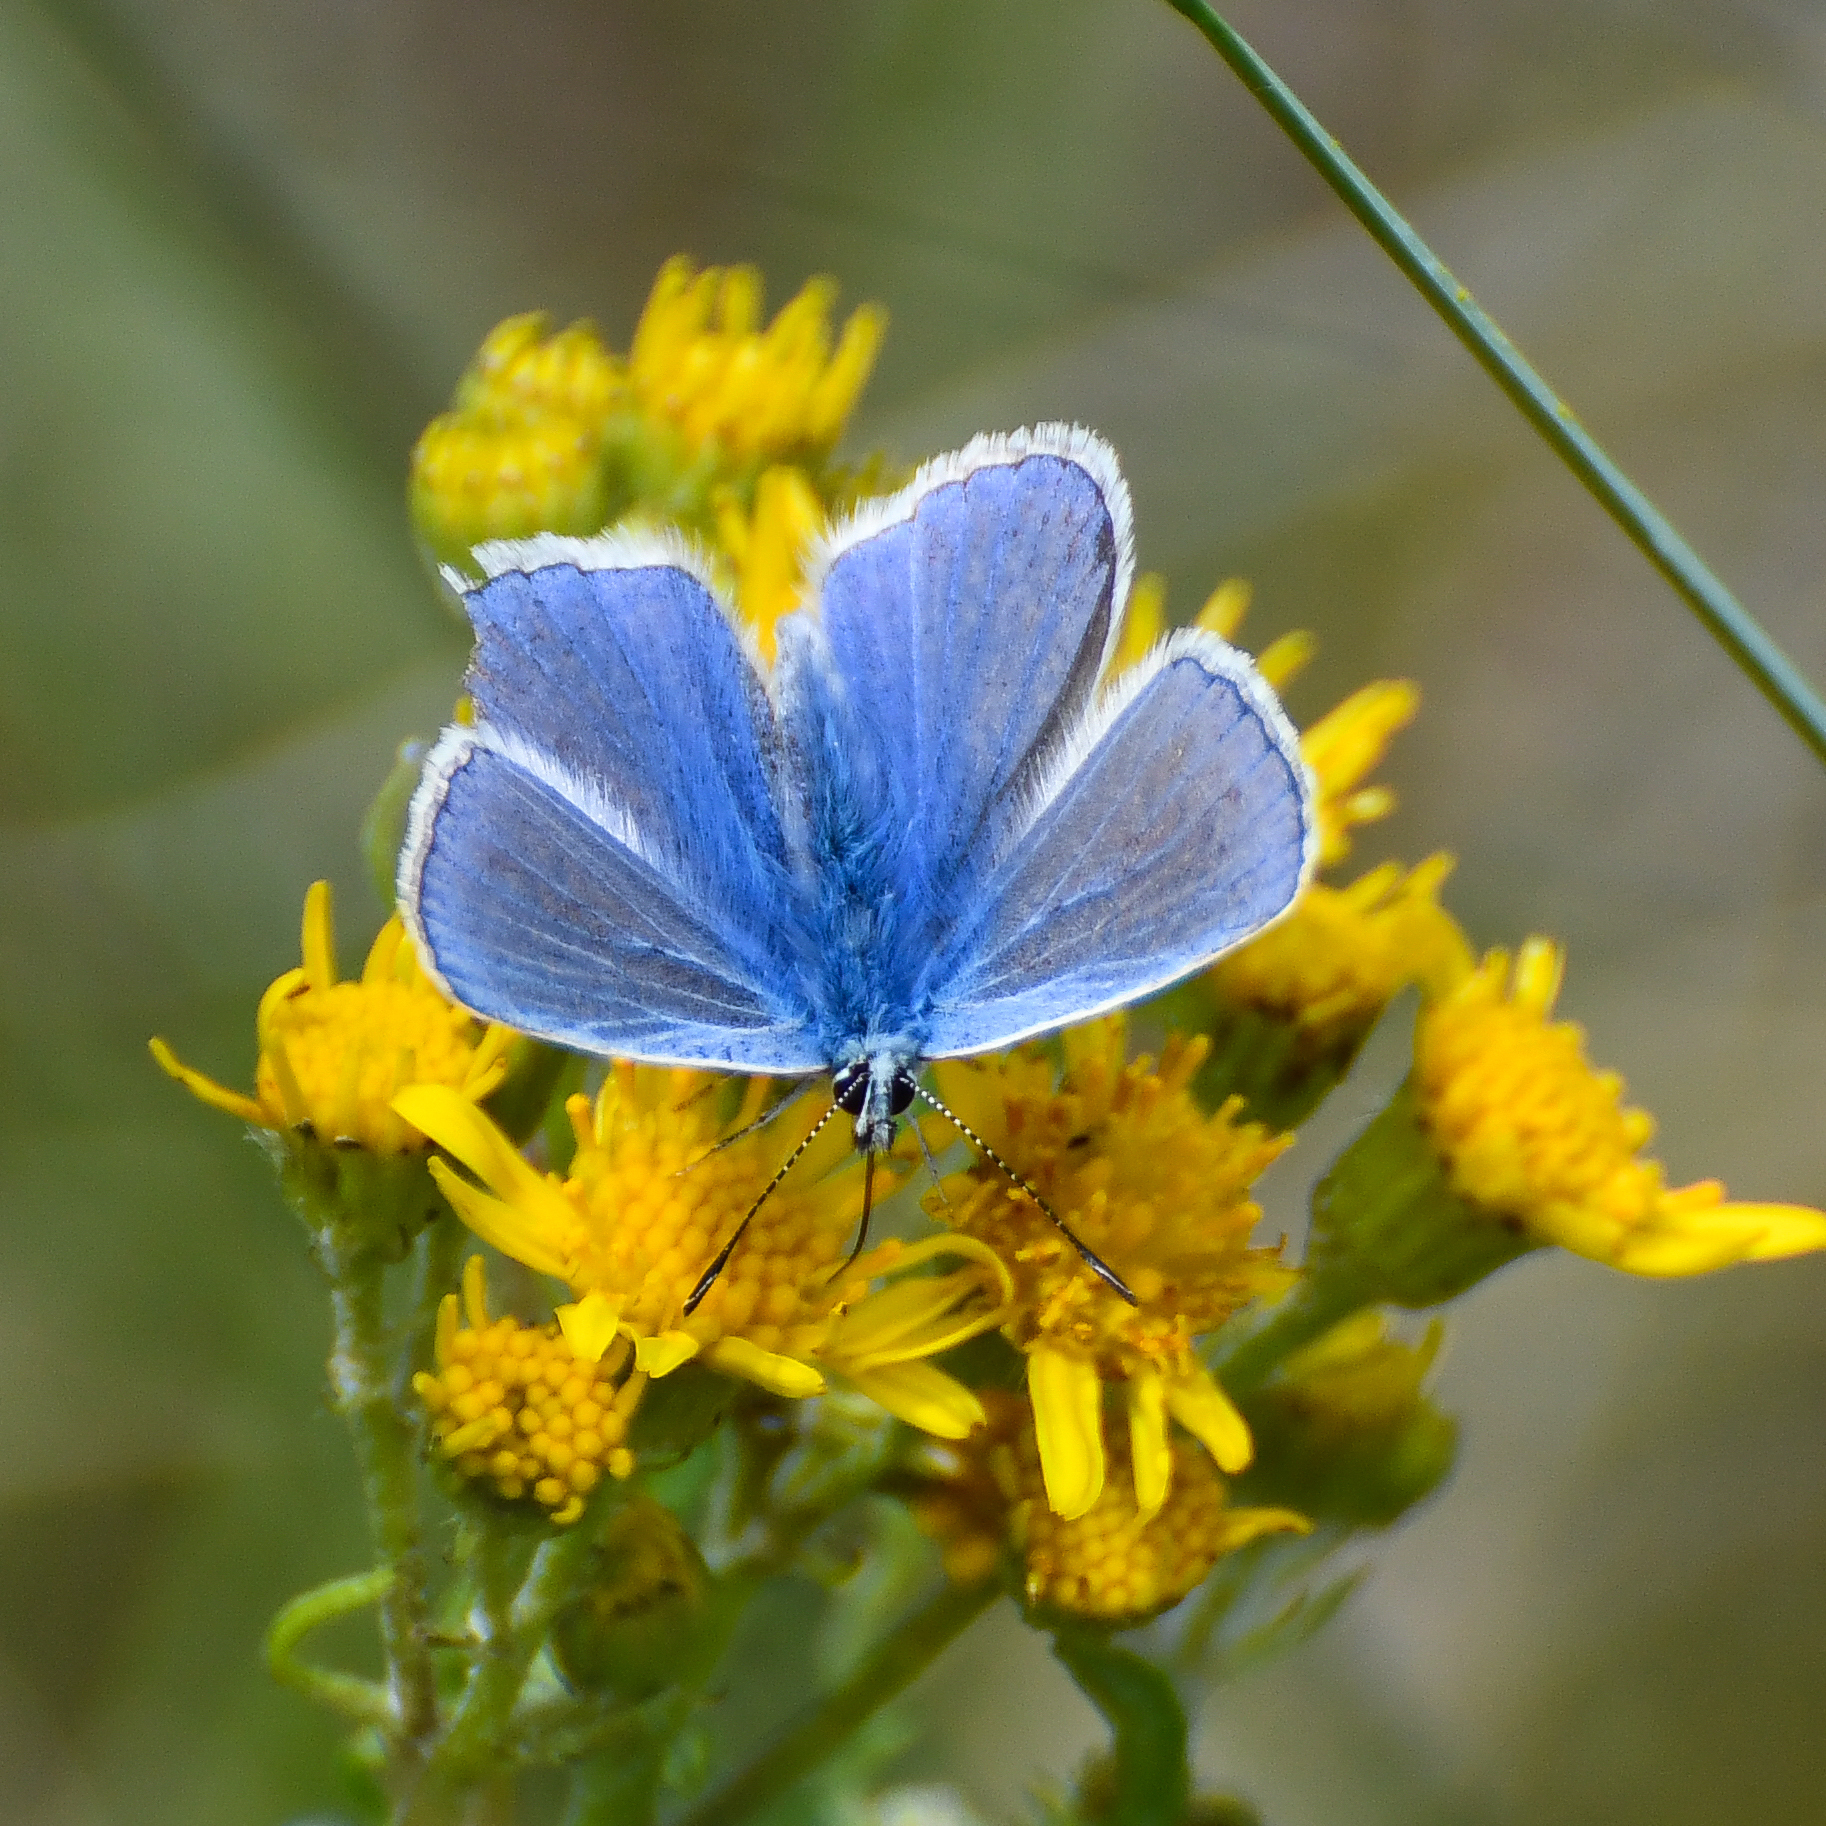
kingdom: Animalia
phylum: Arthropoda
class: Insecta
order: Lepidoptera
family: Lycaenidae
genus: Polyommatus
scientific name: Polyommatus icarus
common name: Common blue
